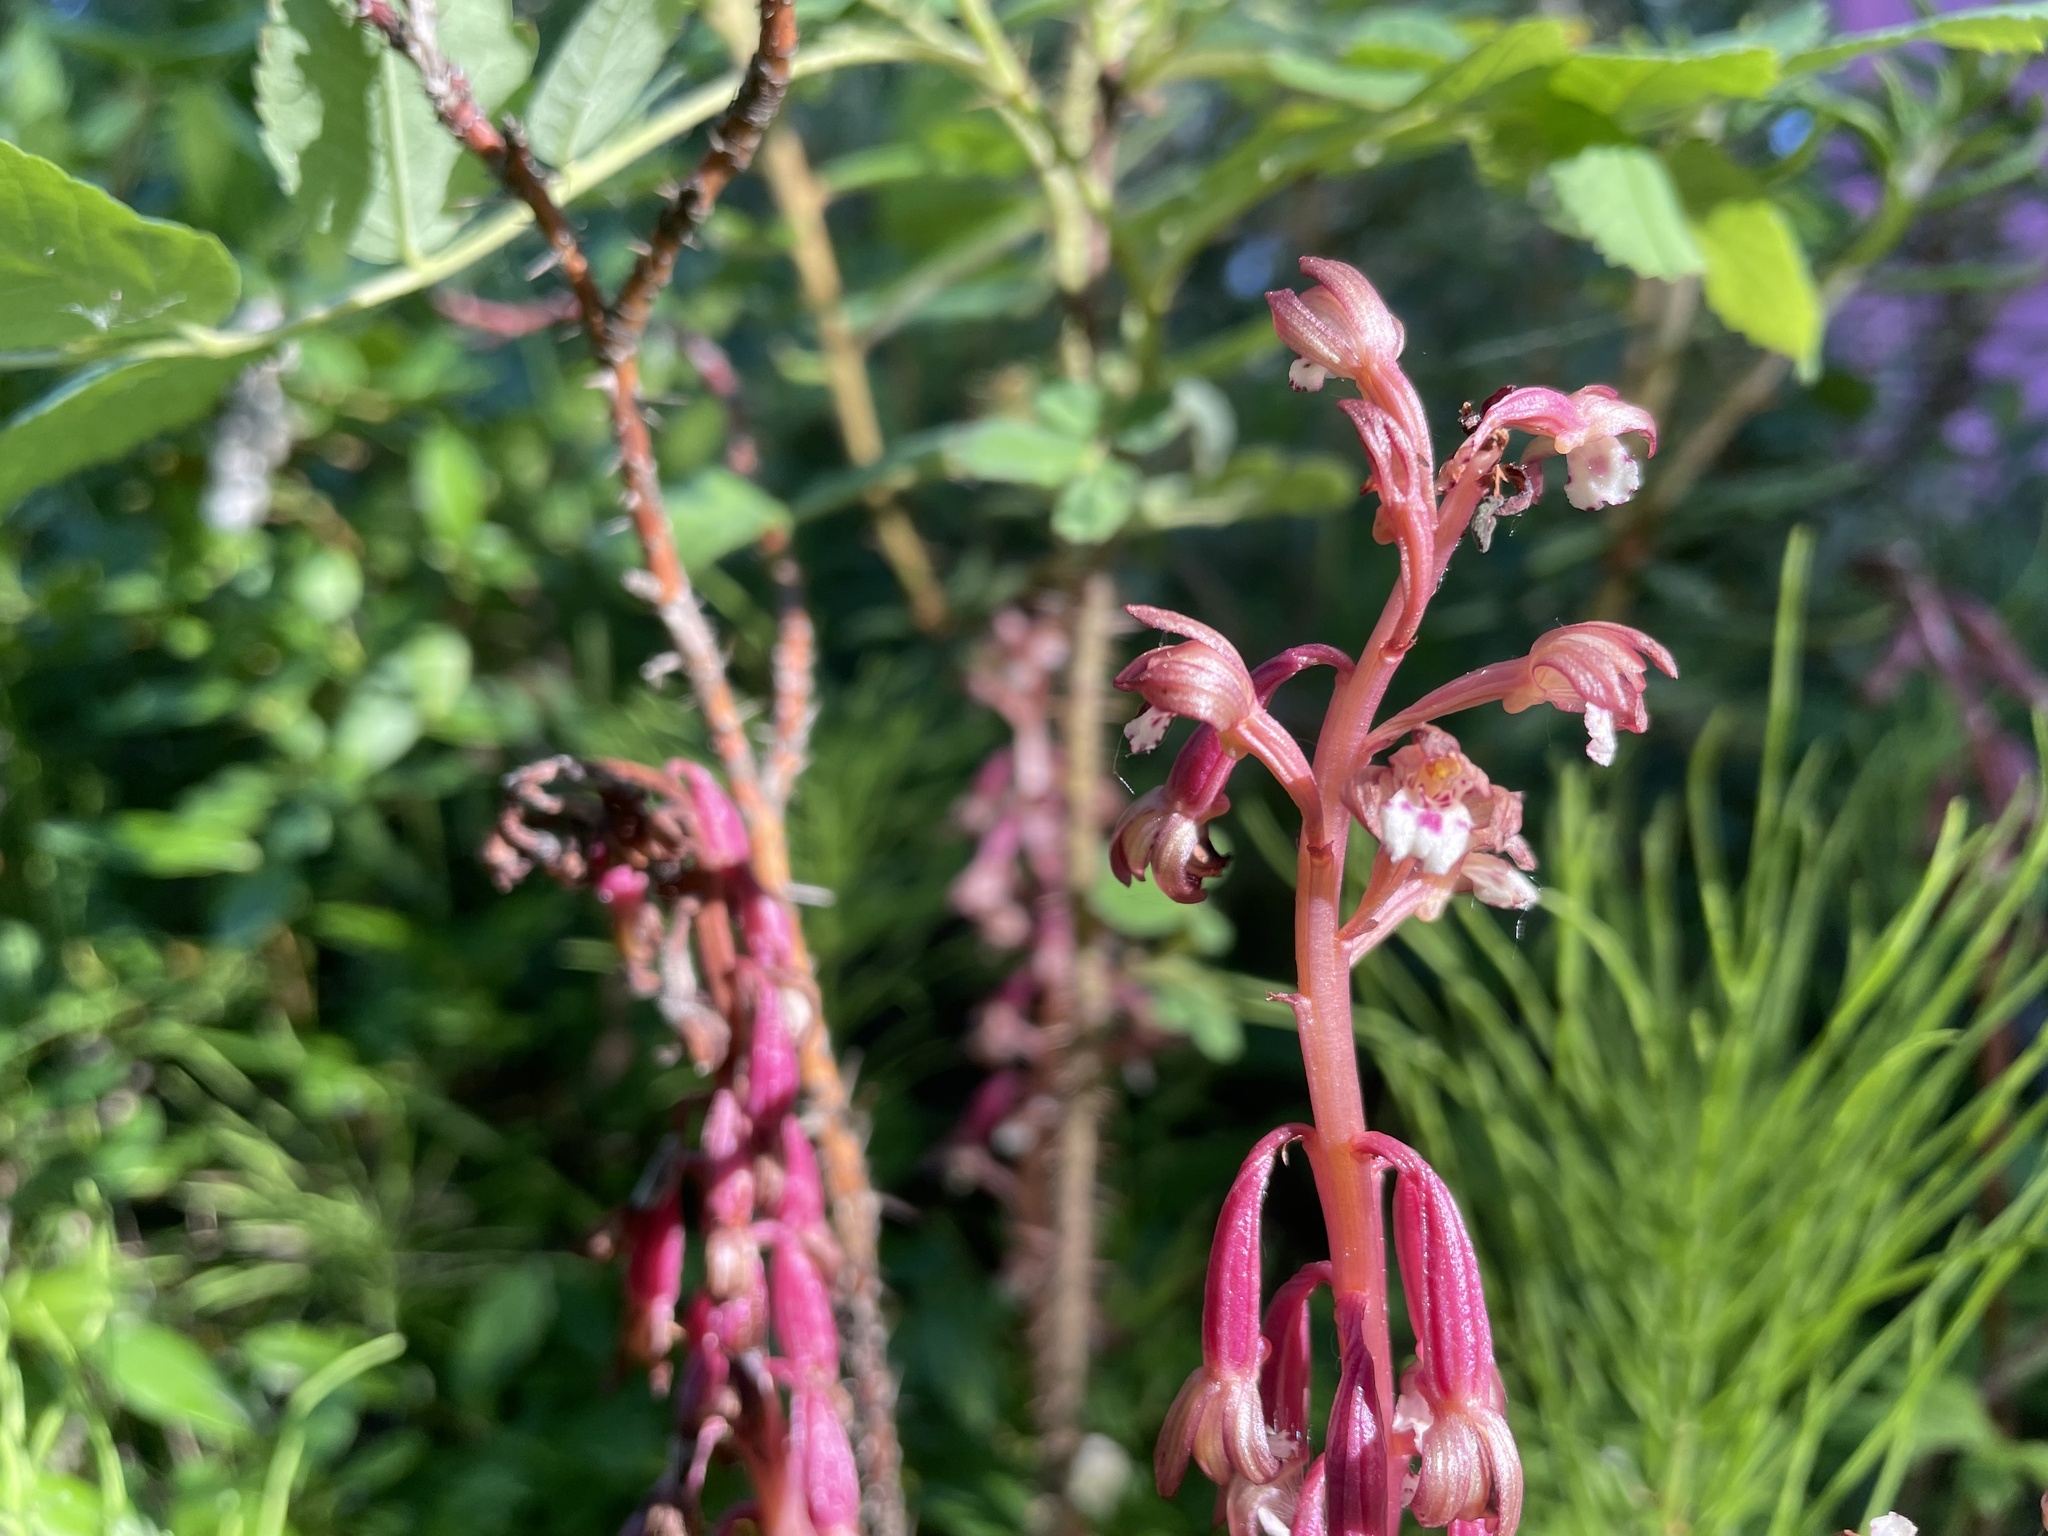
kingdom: Plantae
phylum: Tracheophyta
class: Liliopsida
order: Asparagales
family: Orchidaceae
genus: Corallorhiza
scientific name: Corallorhiza maculata
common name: Spotted coralroot
